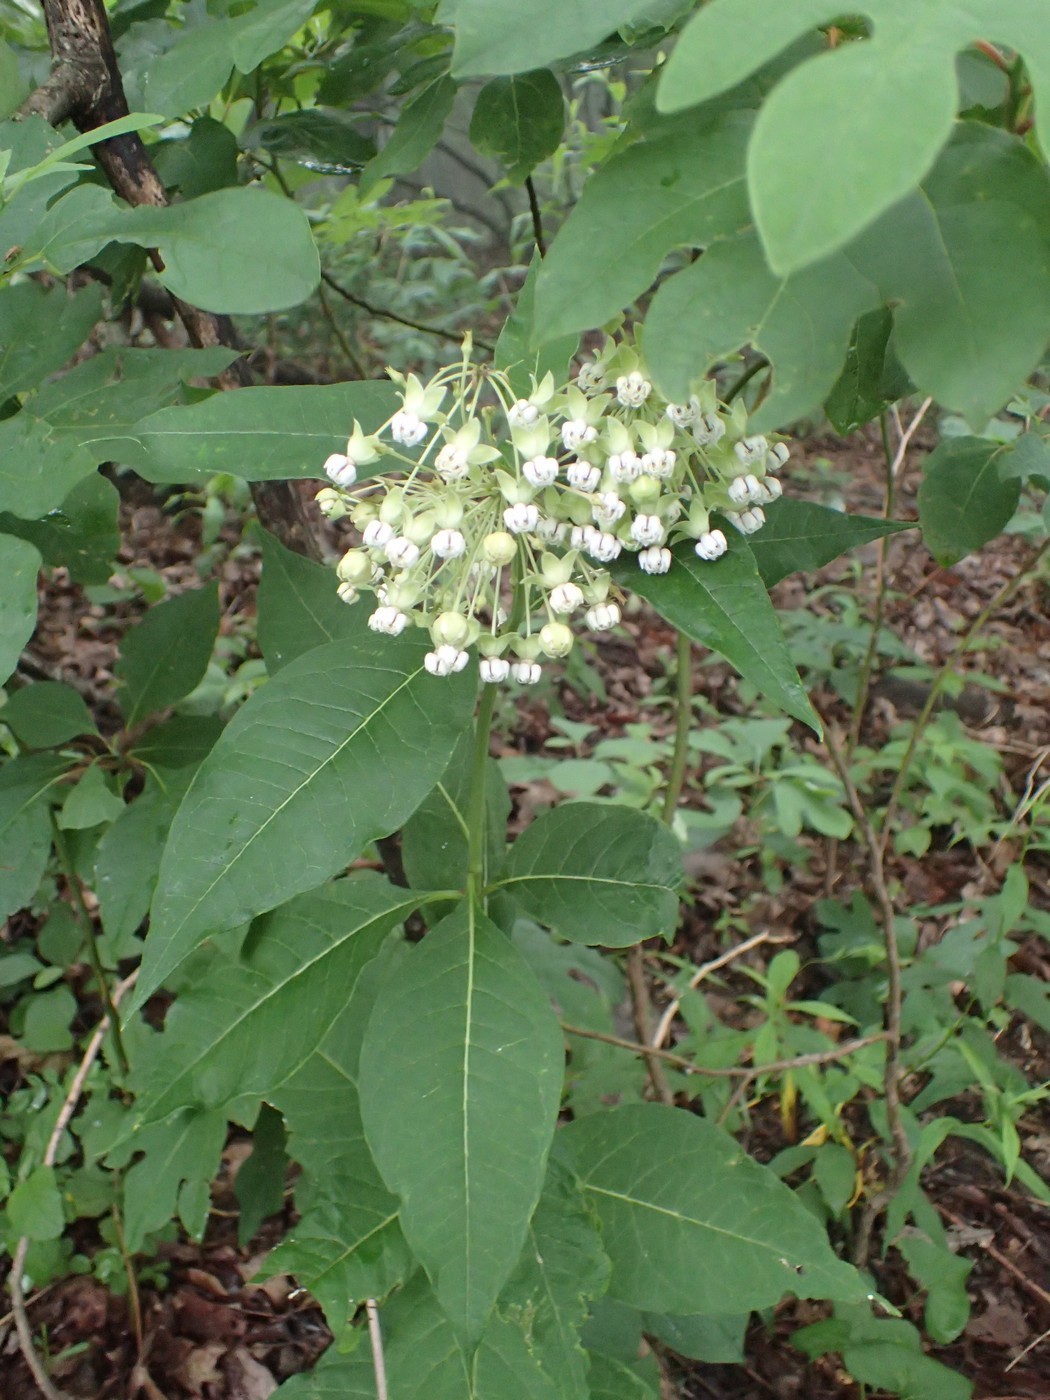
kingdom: Plantae
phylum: Tracheophyta
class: Magnoliopsida
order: Gentianales
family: Apocynaceae
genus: Asclepias
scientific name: Asclepias exaltata
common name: Poke milkweed
